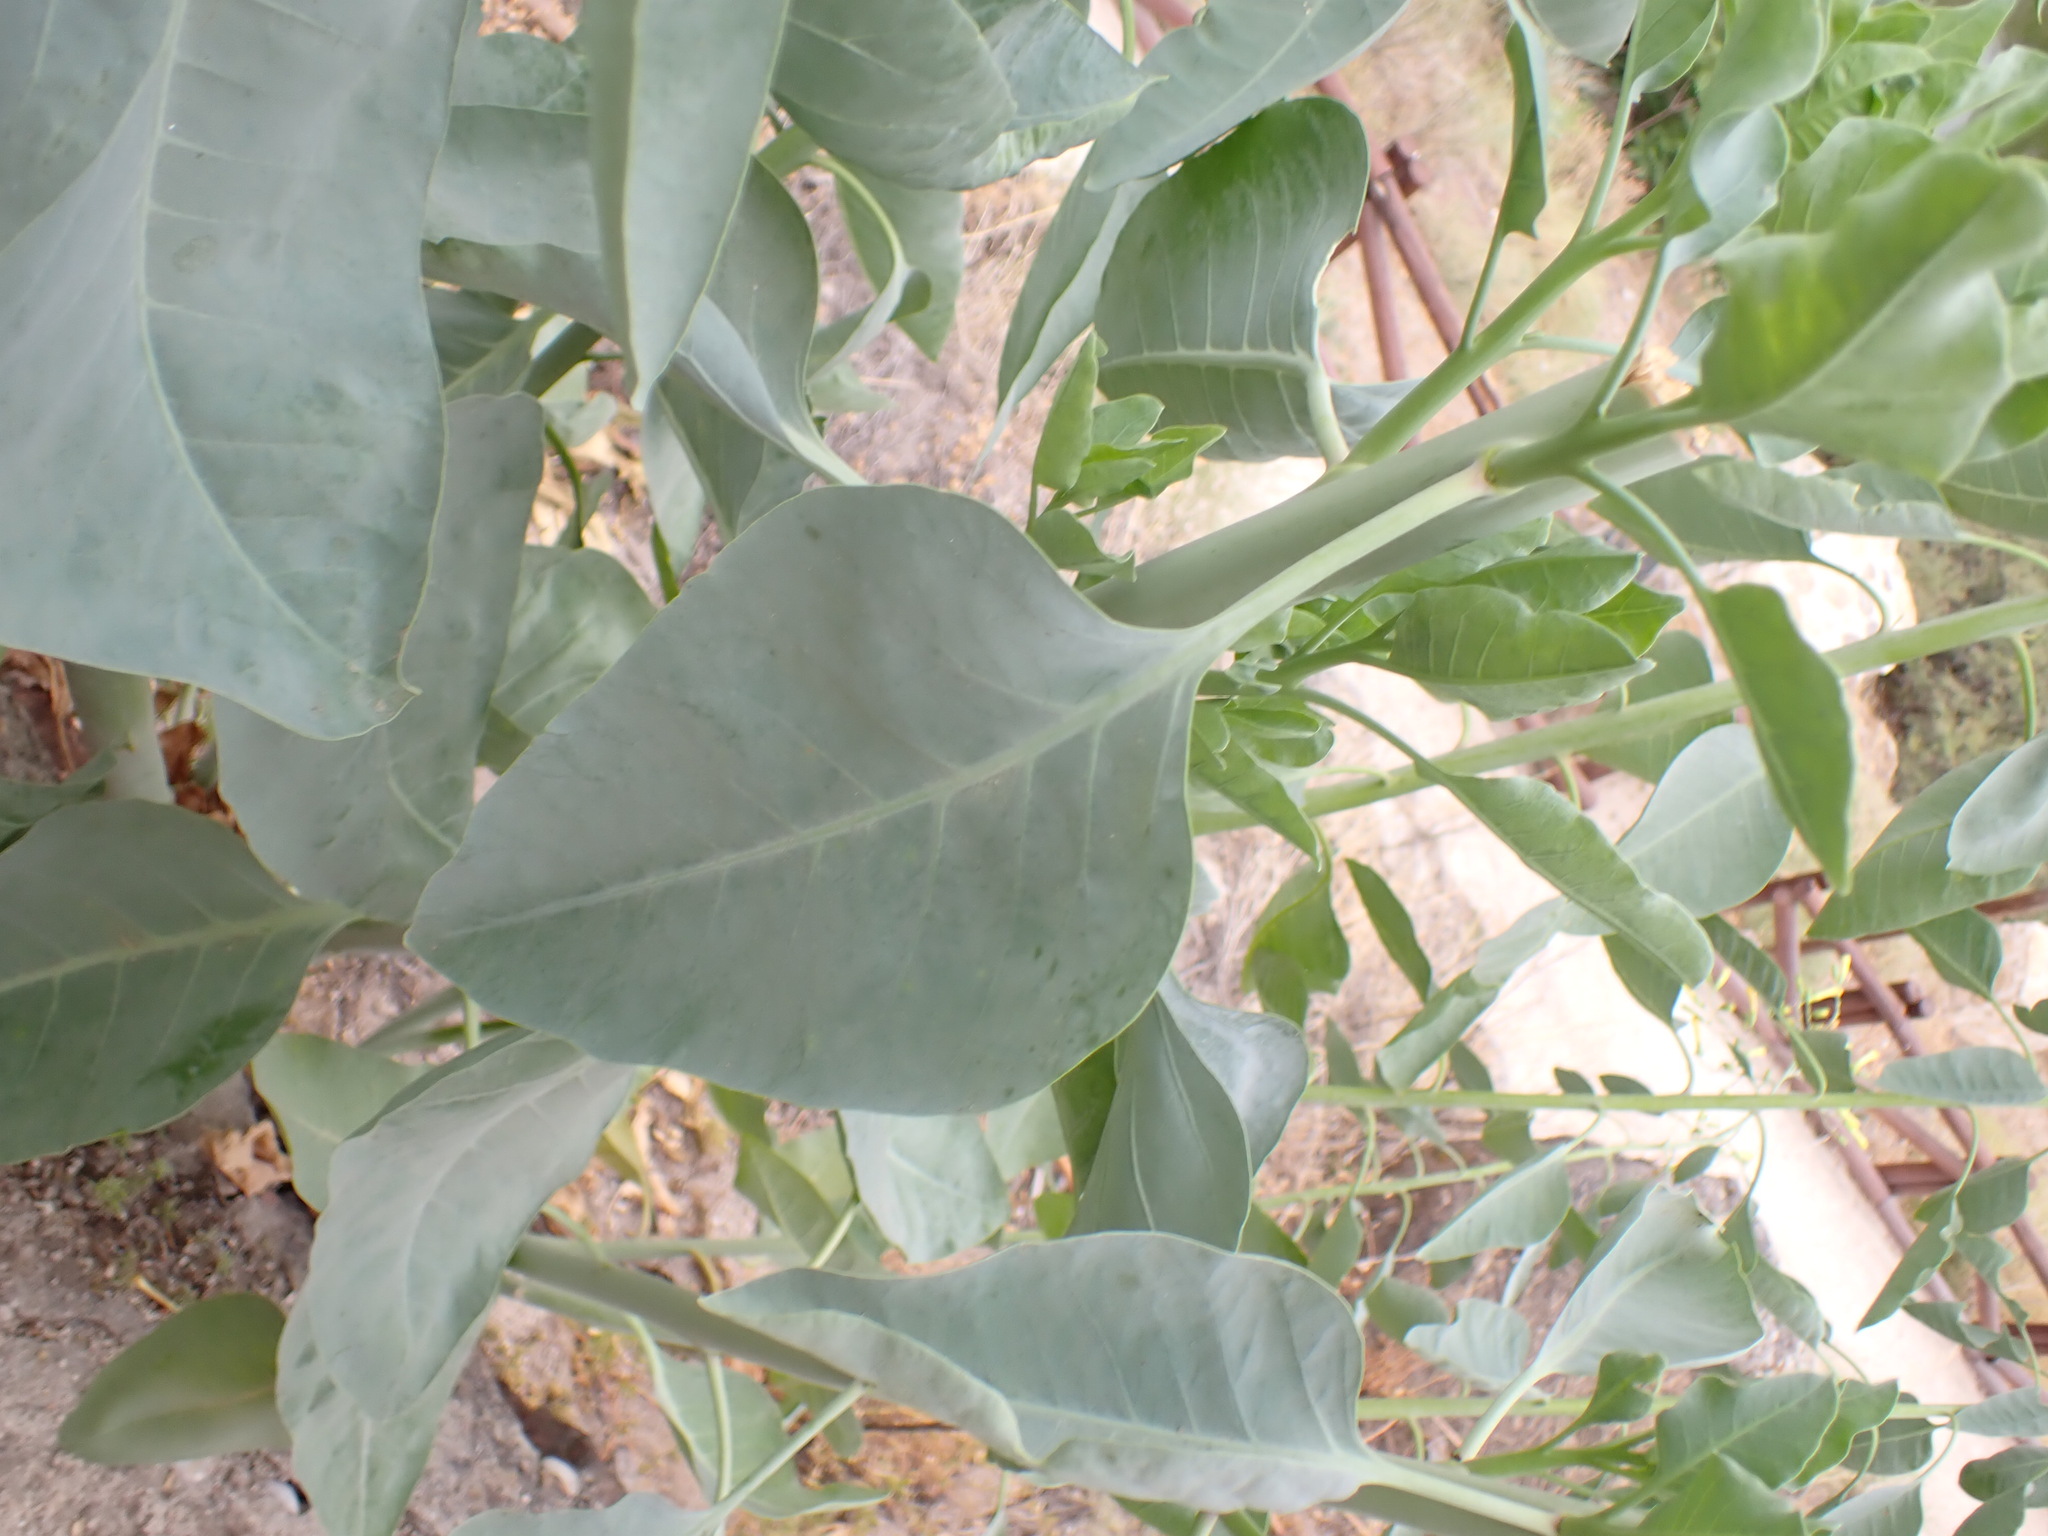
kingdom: Plantae
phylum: Tracheophyta
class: Magnoliopsida
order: Solanales
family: Solanaceae
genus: Nicotiana
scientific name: Nicotiana glauca
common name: Tree tobacco
